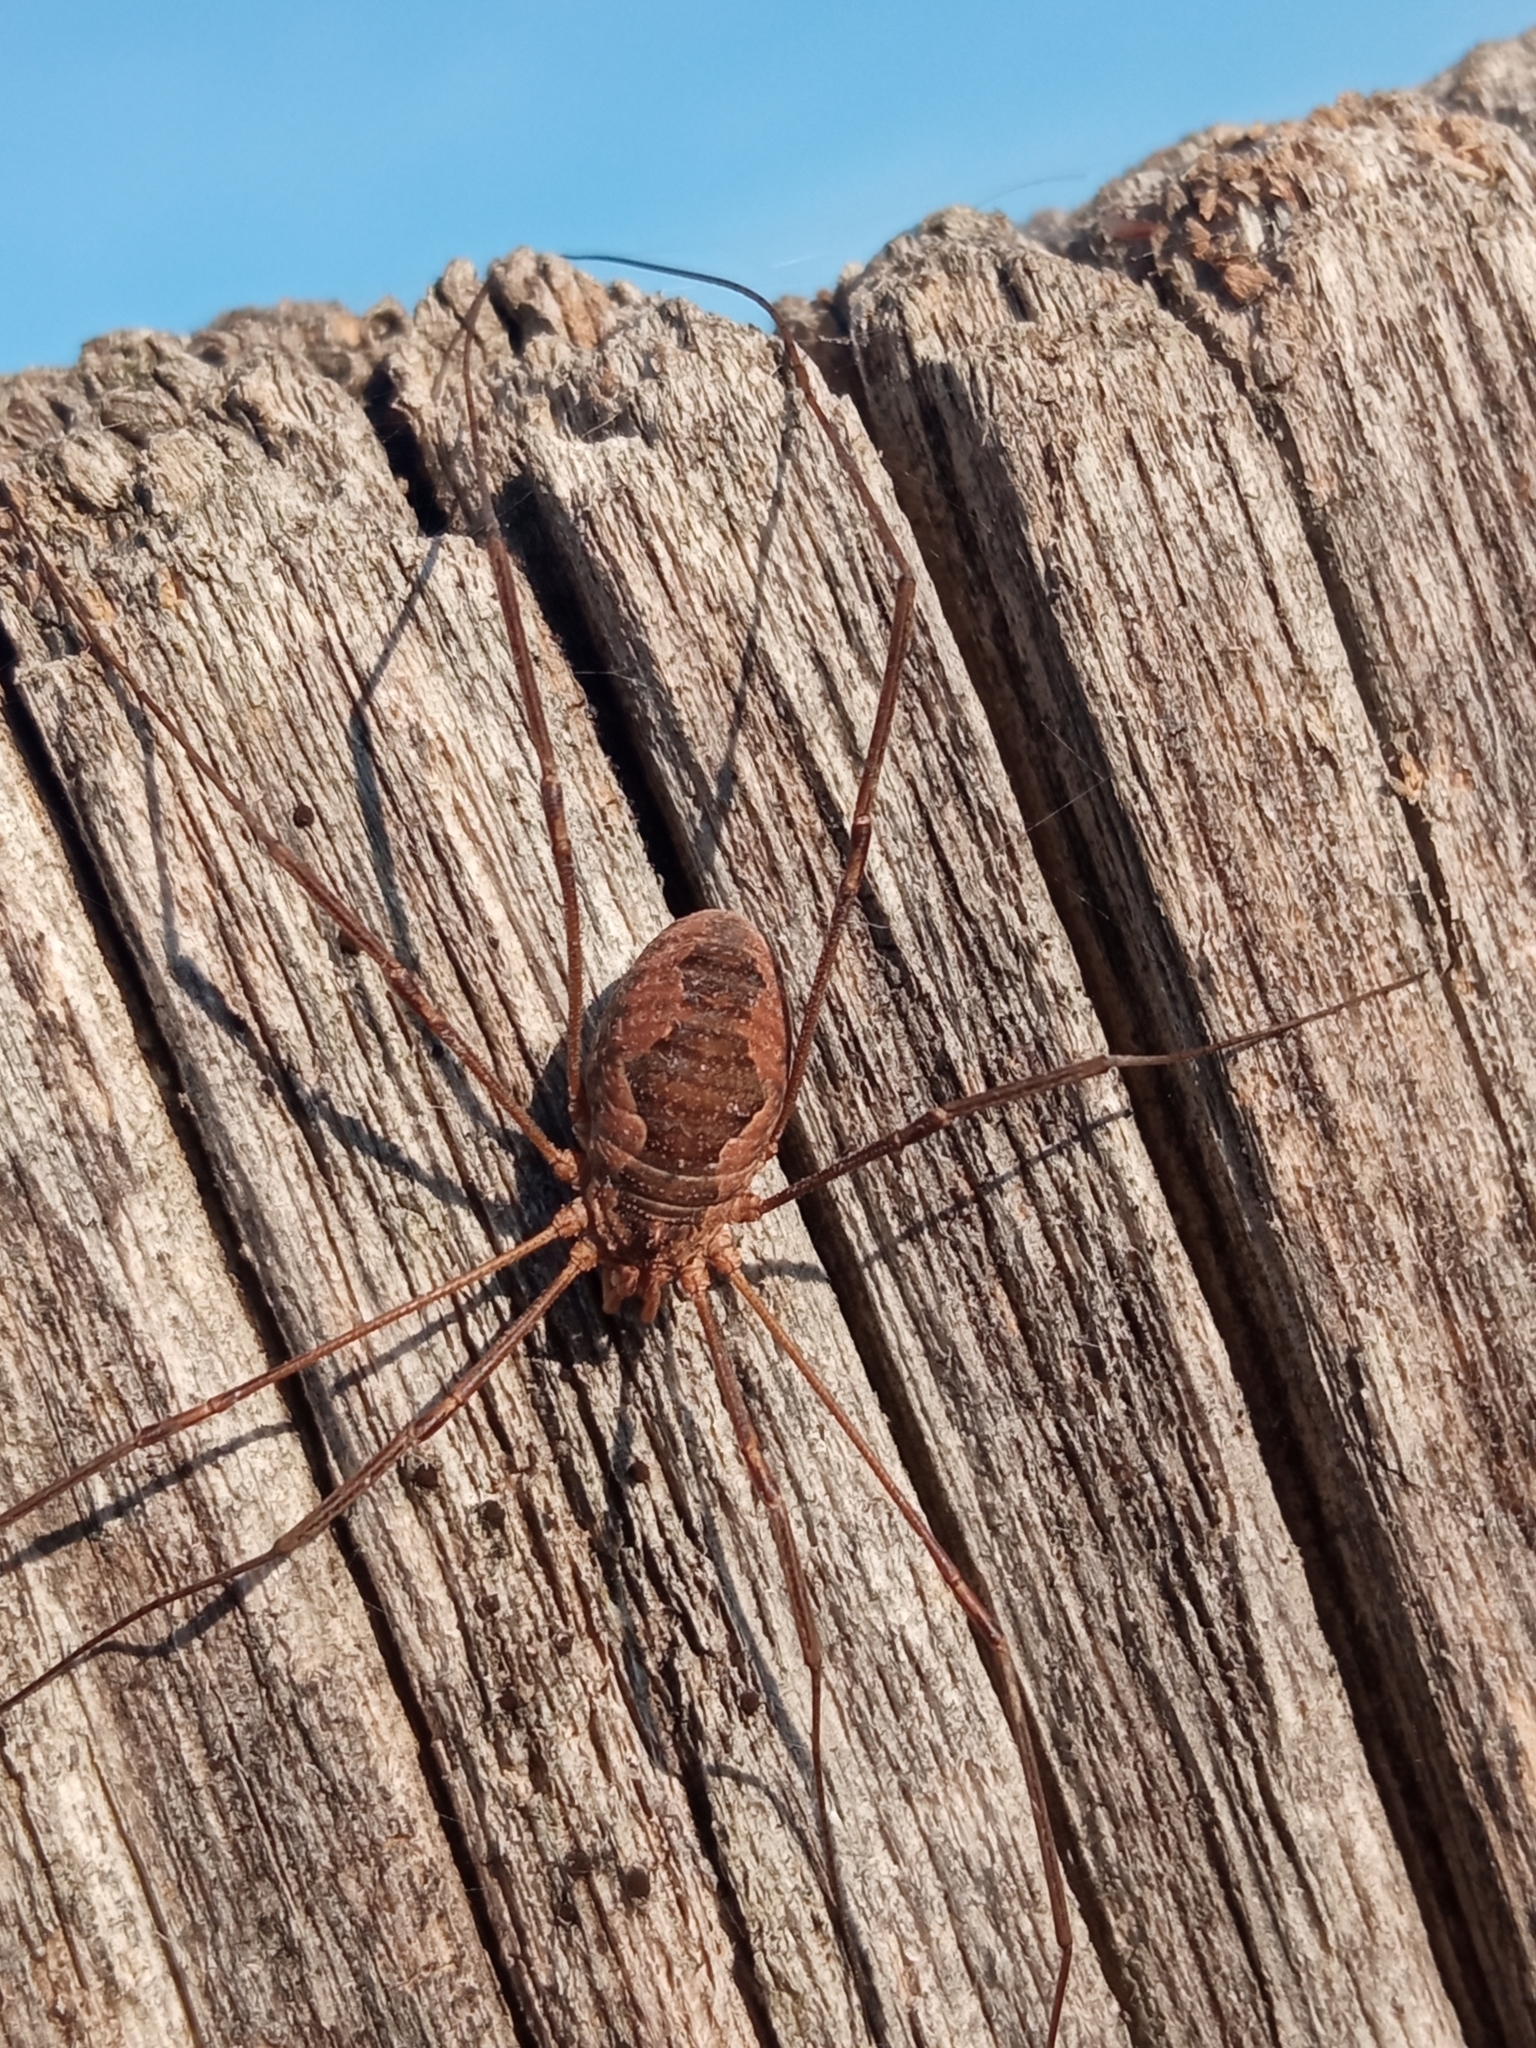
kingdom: Animalia
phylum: Arthropoda
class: Arachnida
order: Opiliones
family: Phalangiidae
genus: Phalangium
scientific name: Phalangium opilio
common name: Daddy longleg
